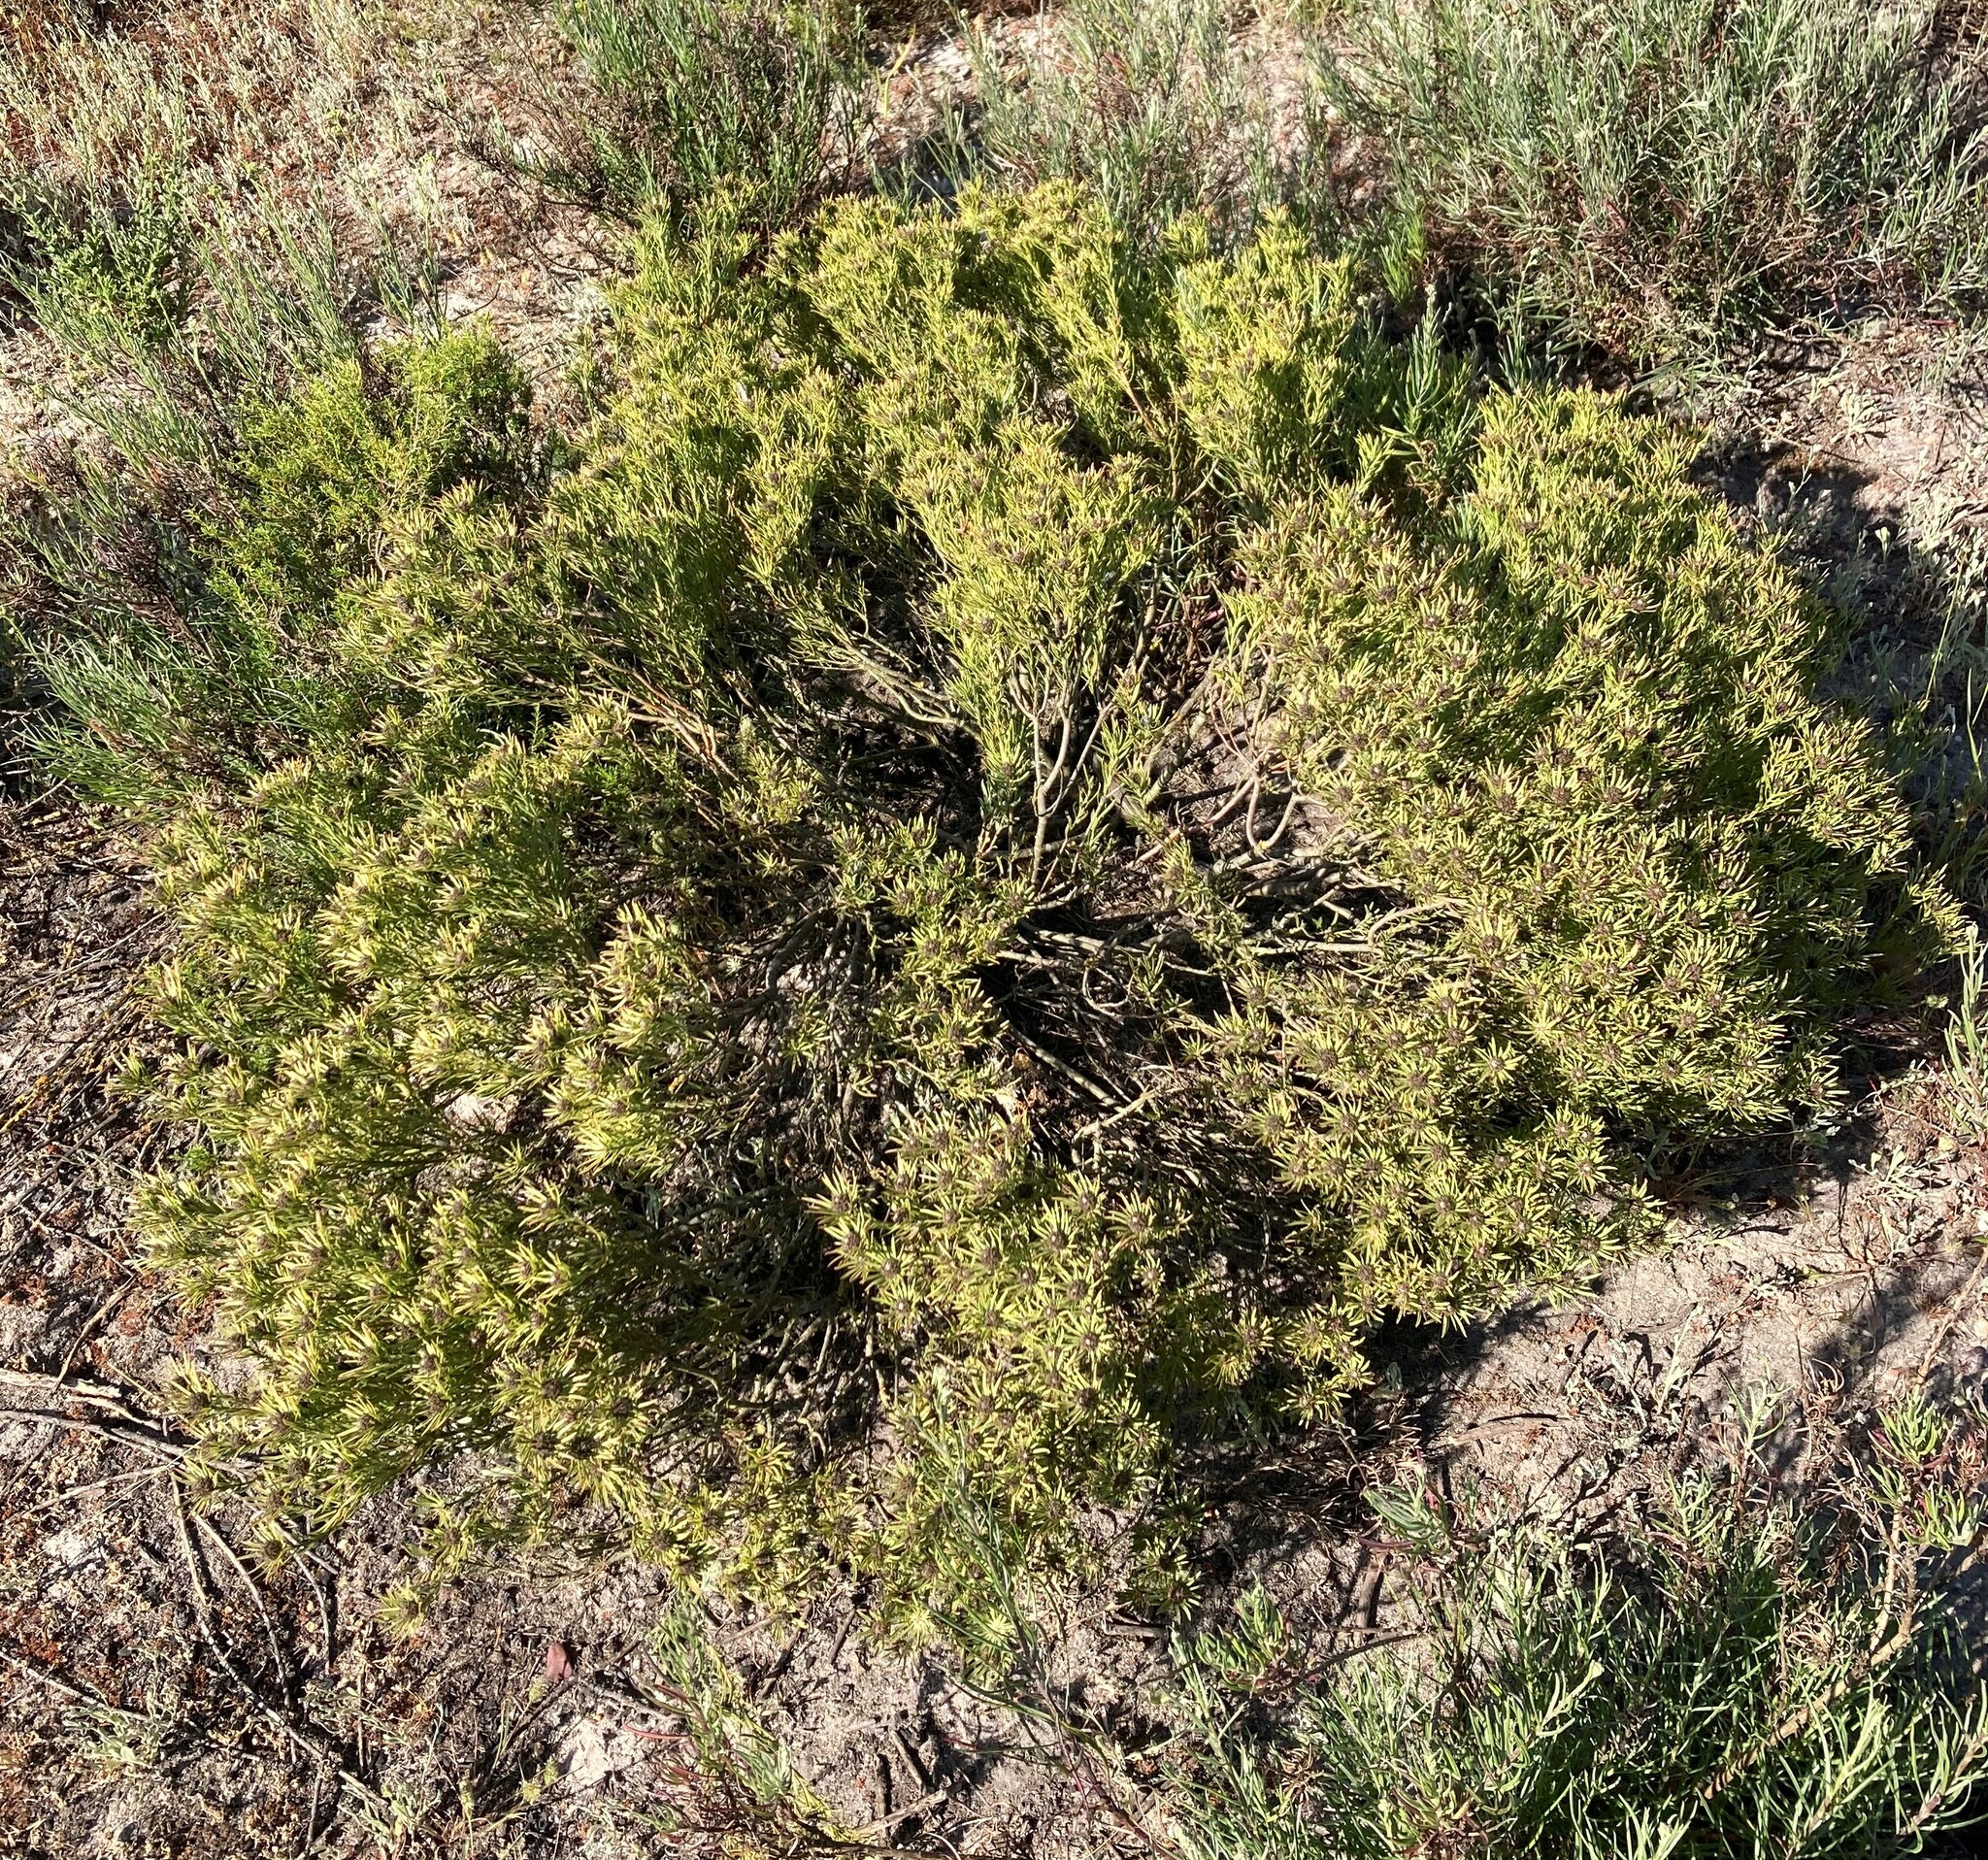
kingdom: Plantae
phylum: Tracheophyta
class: Magnoliopsida
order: Proteales
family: Proteaceae
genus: Leucadendron
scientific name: Leucadendron lanigerum
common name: Shale conebush
